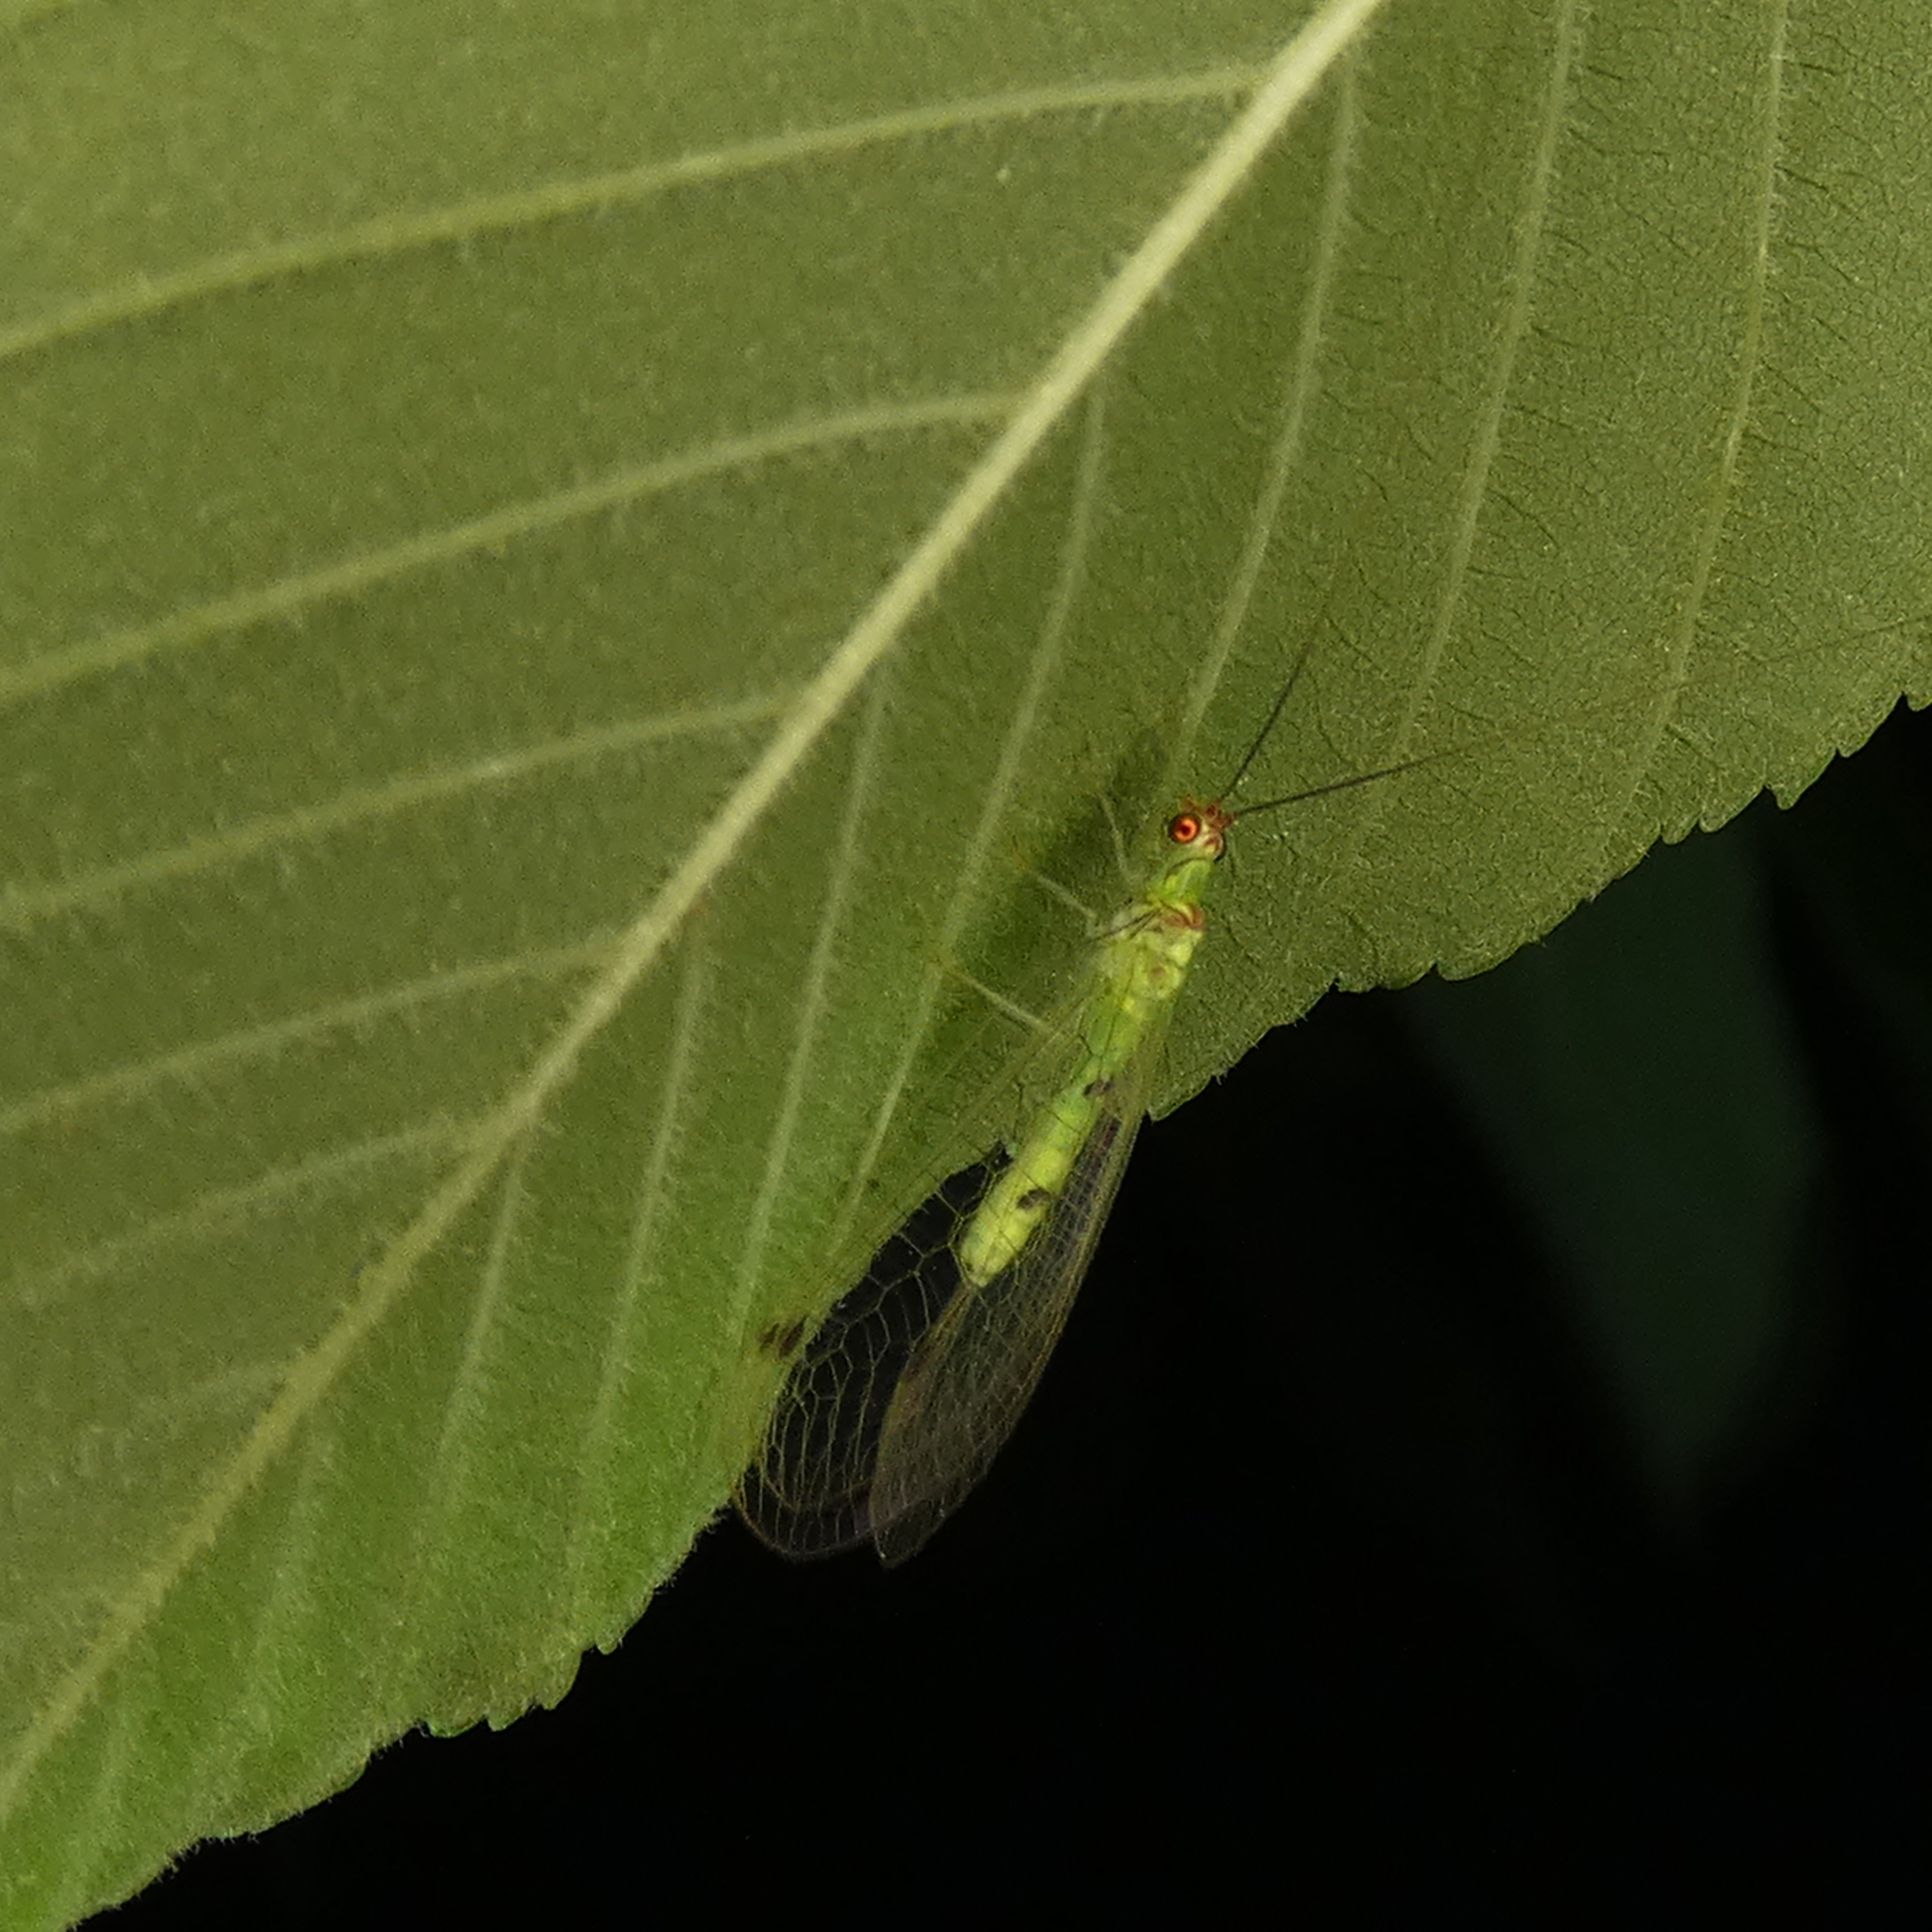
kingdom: Animalia
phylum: Arthropoda
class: Insecta
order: Neuroptera
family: Chrysopidae
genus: Leucochrysa
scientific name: Leucochrysa explorata
